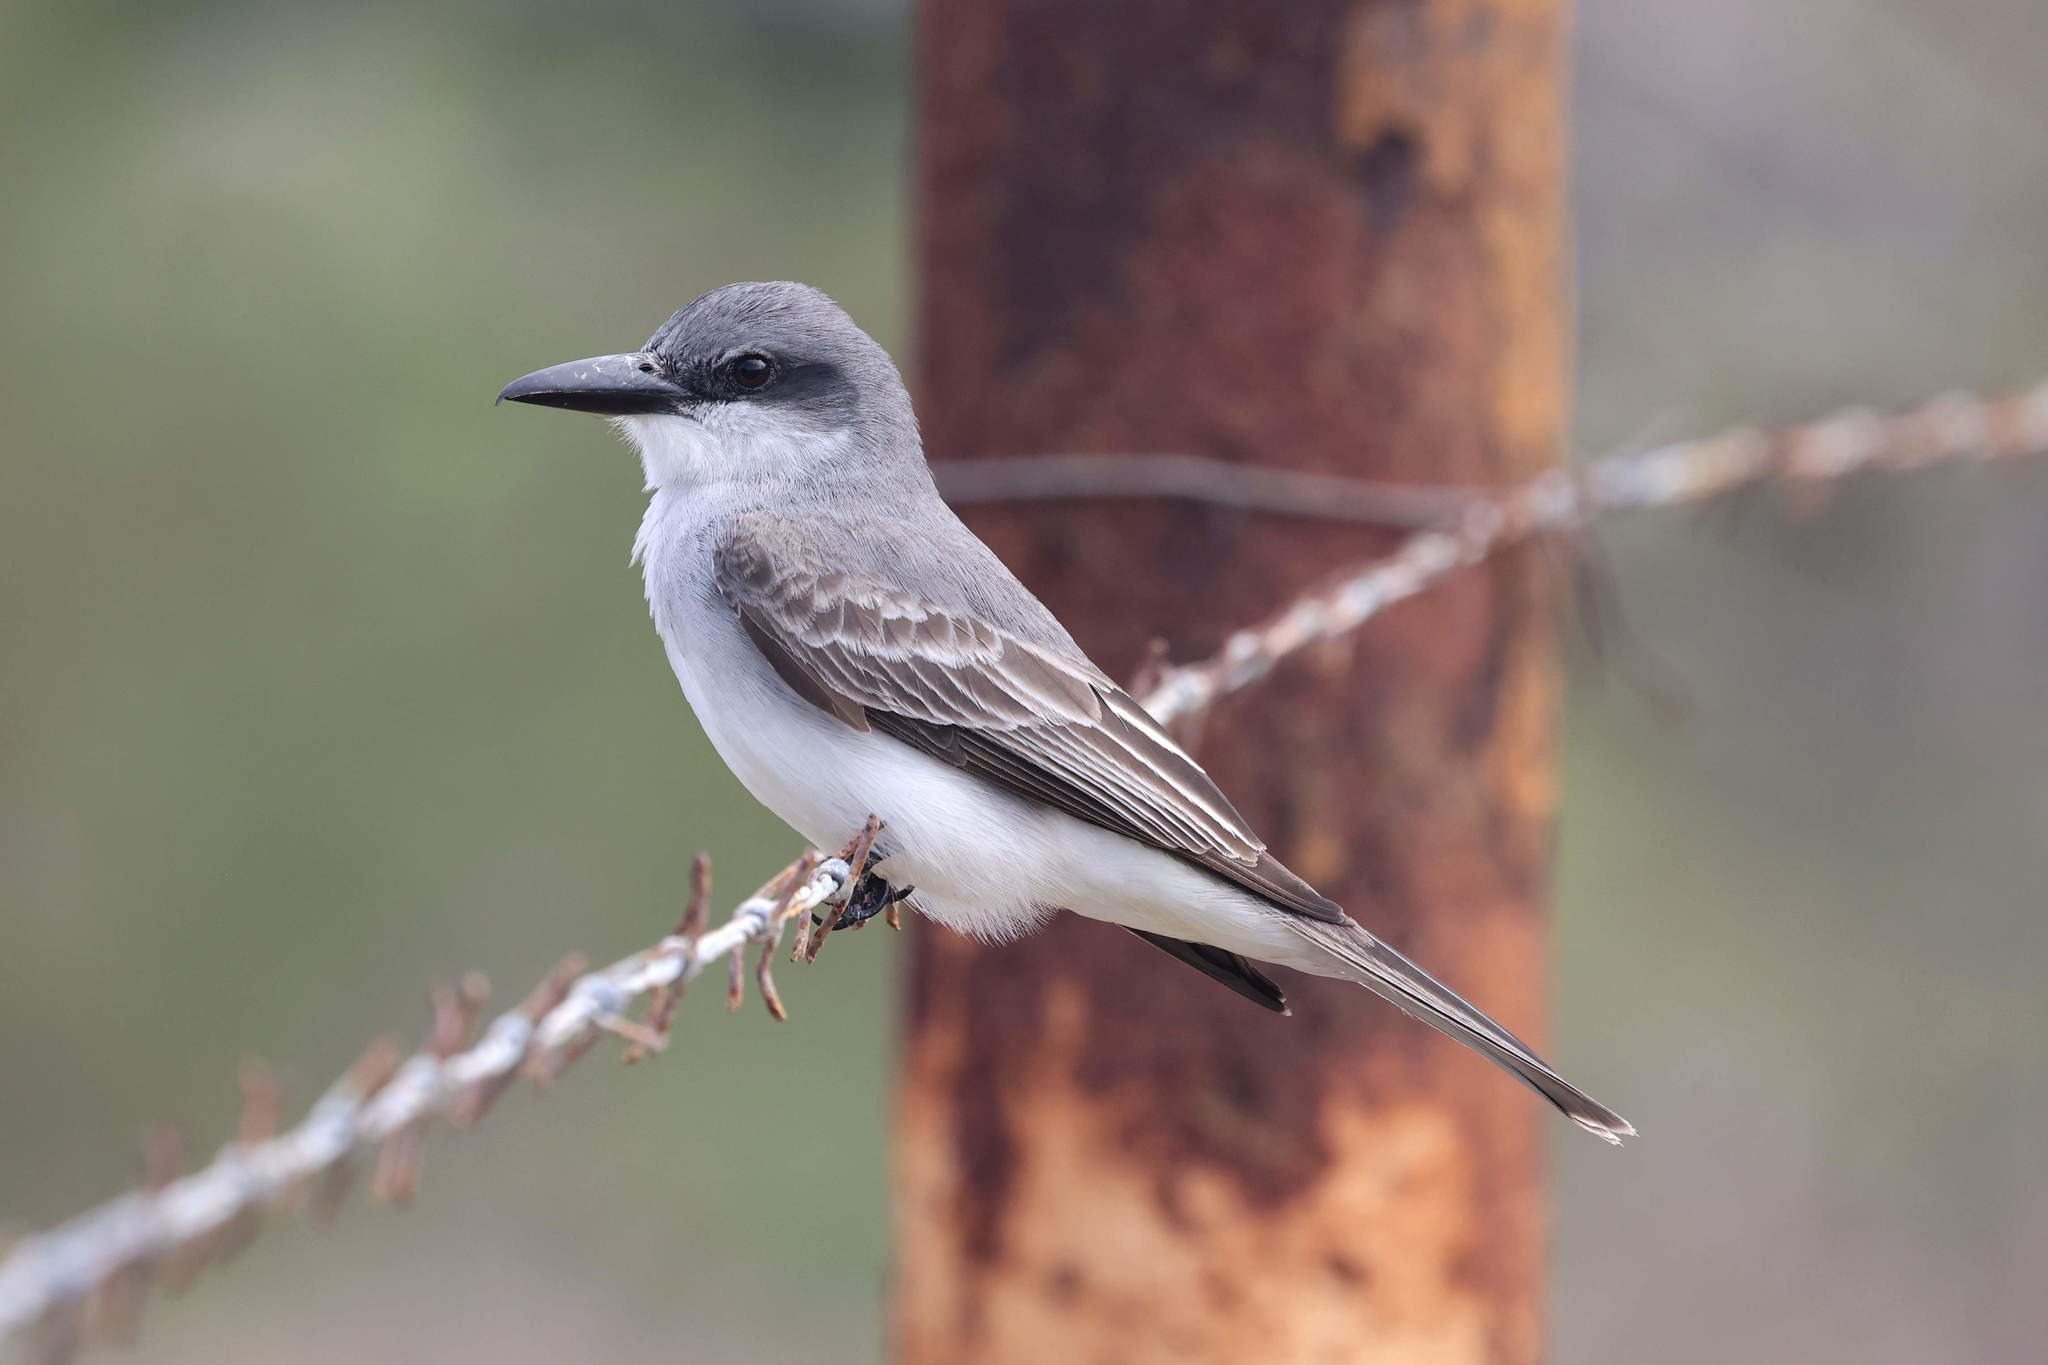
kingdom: Animalia
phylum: Chordata
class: Aves
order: Passeriformes
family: Tyrannidae
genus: Tyrannus
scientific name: Tyrannus dominicensis
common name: Gray kingbird
